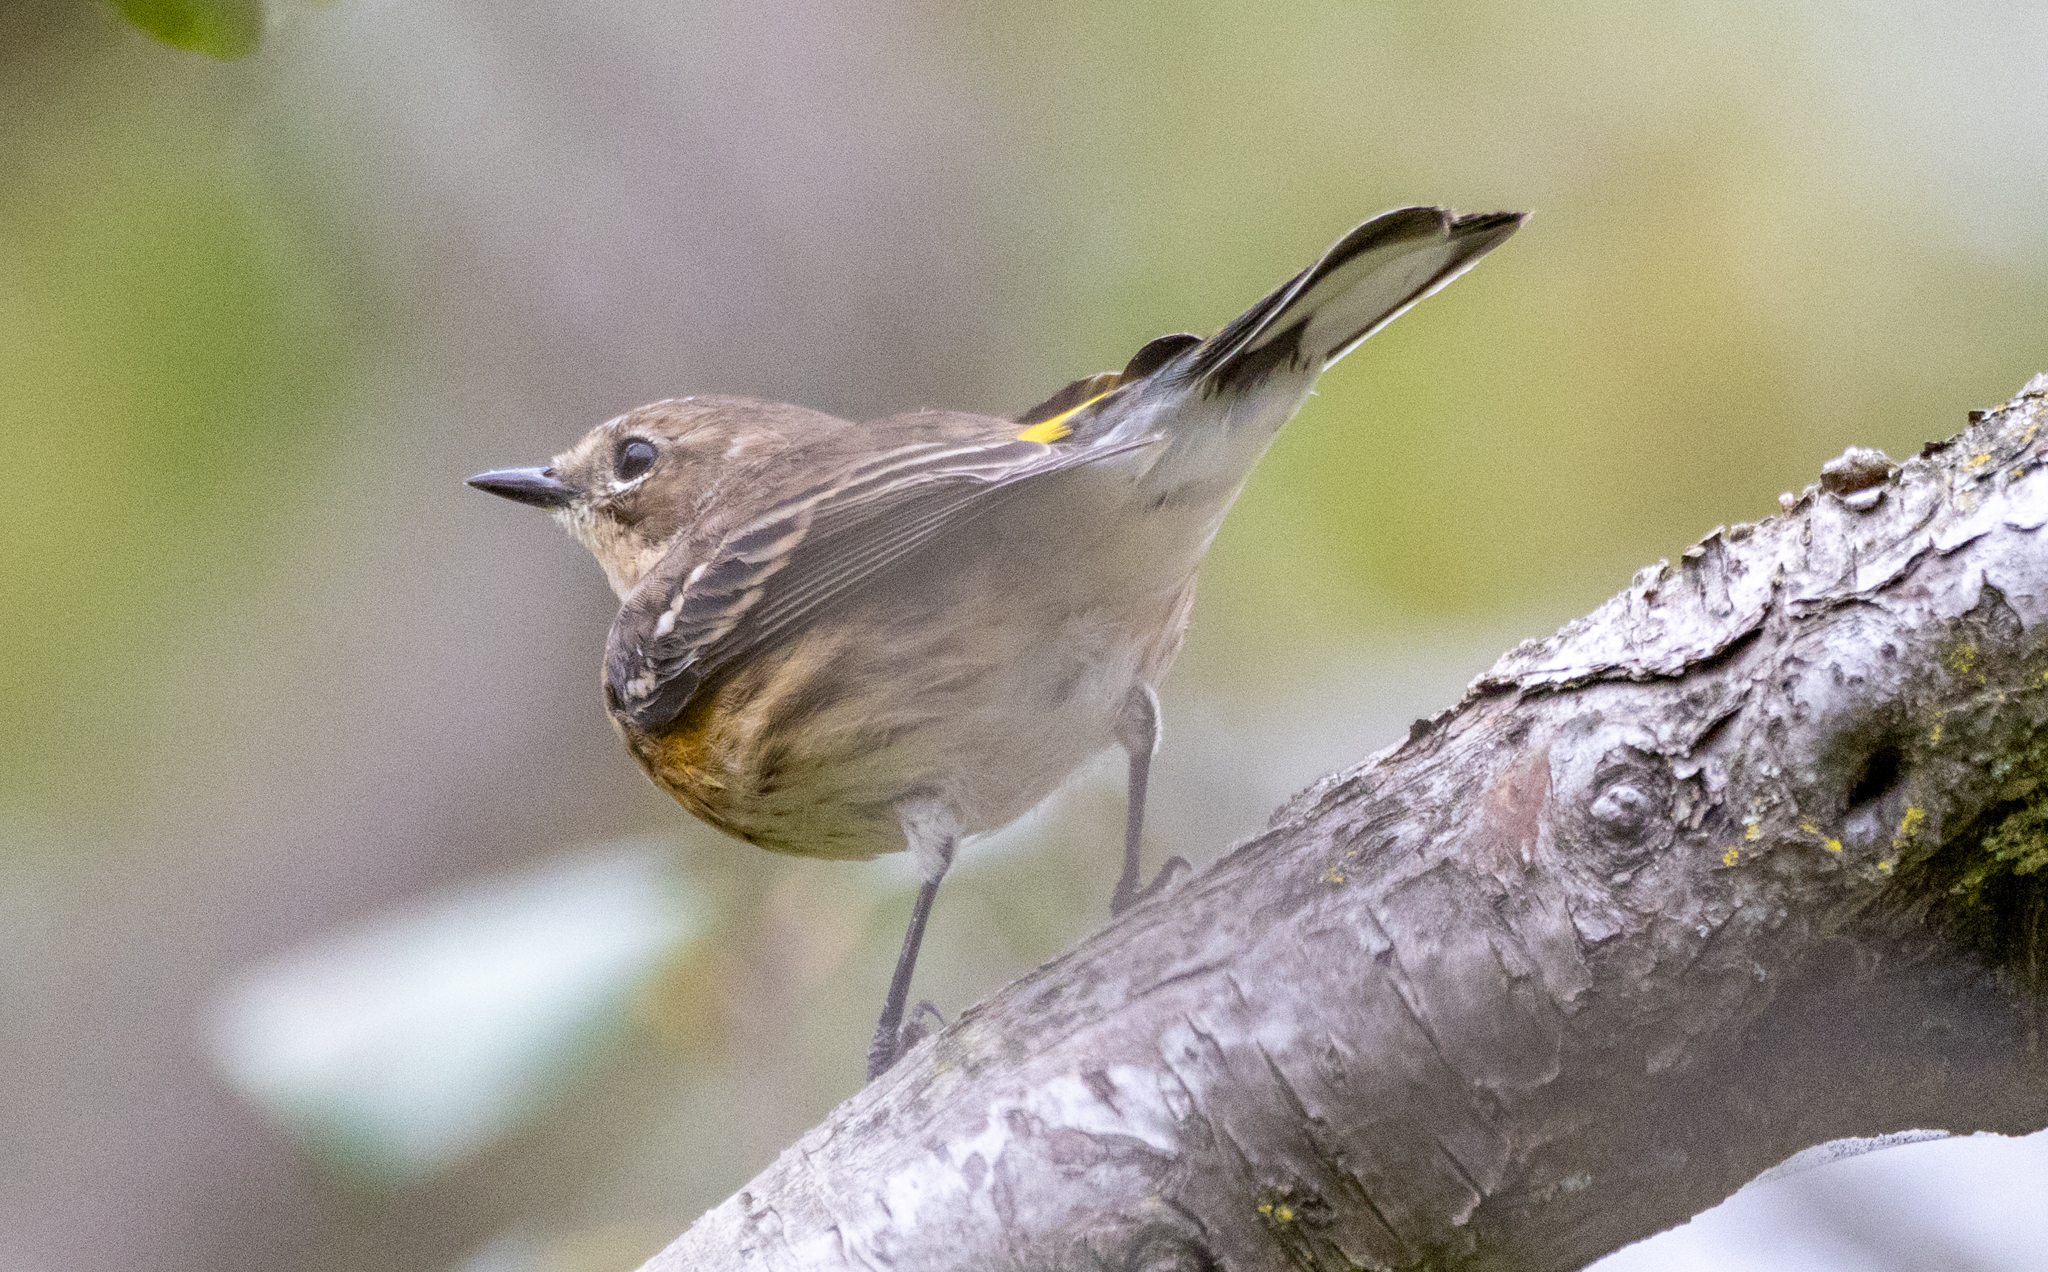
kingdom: Animalia
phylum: Chordata
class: Aves
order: Passeriformes
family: Parulidae
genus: Setophaga
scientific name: Setophaga coronata
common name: Myrtle warbler
